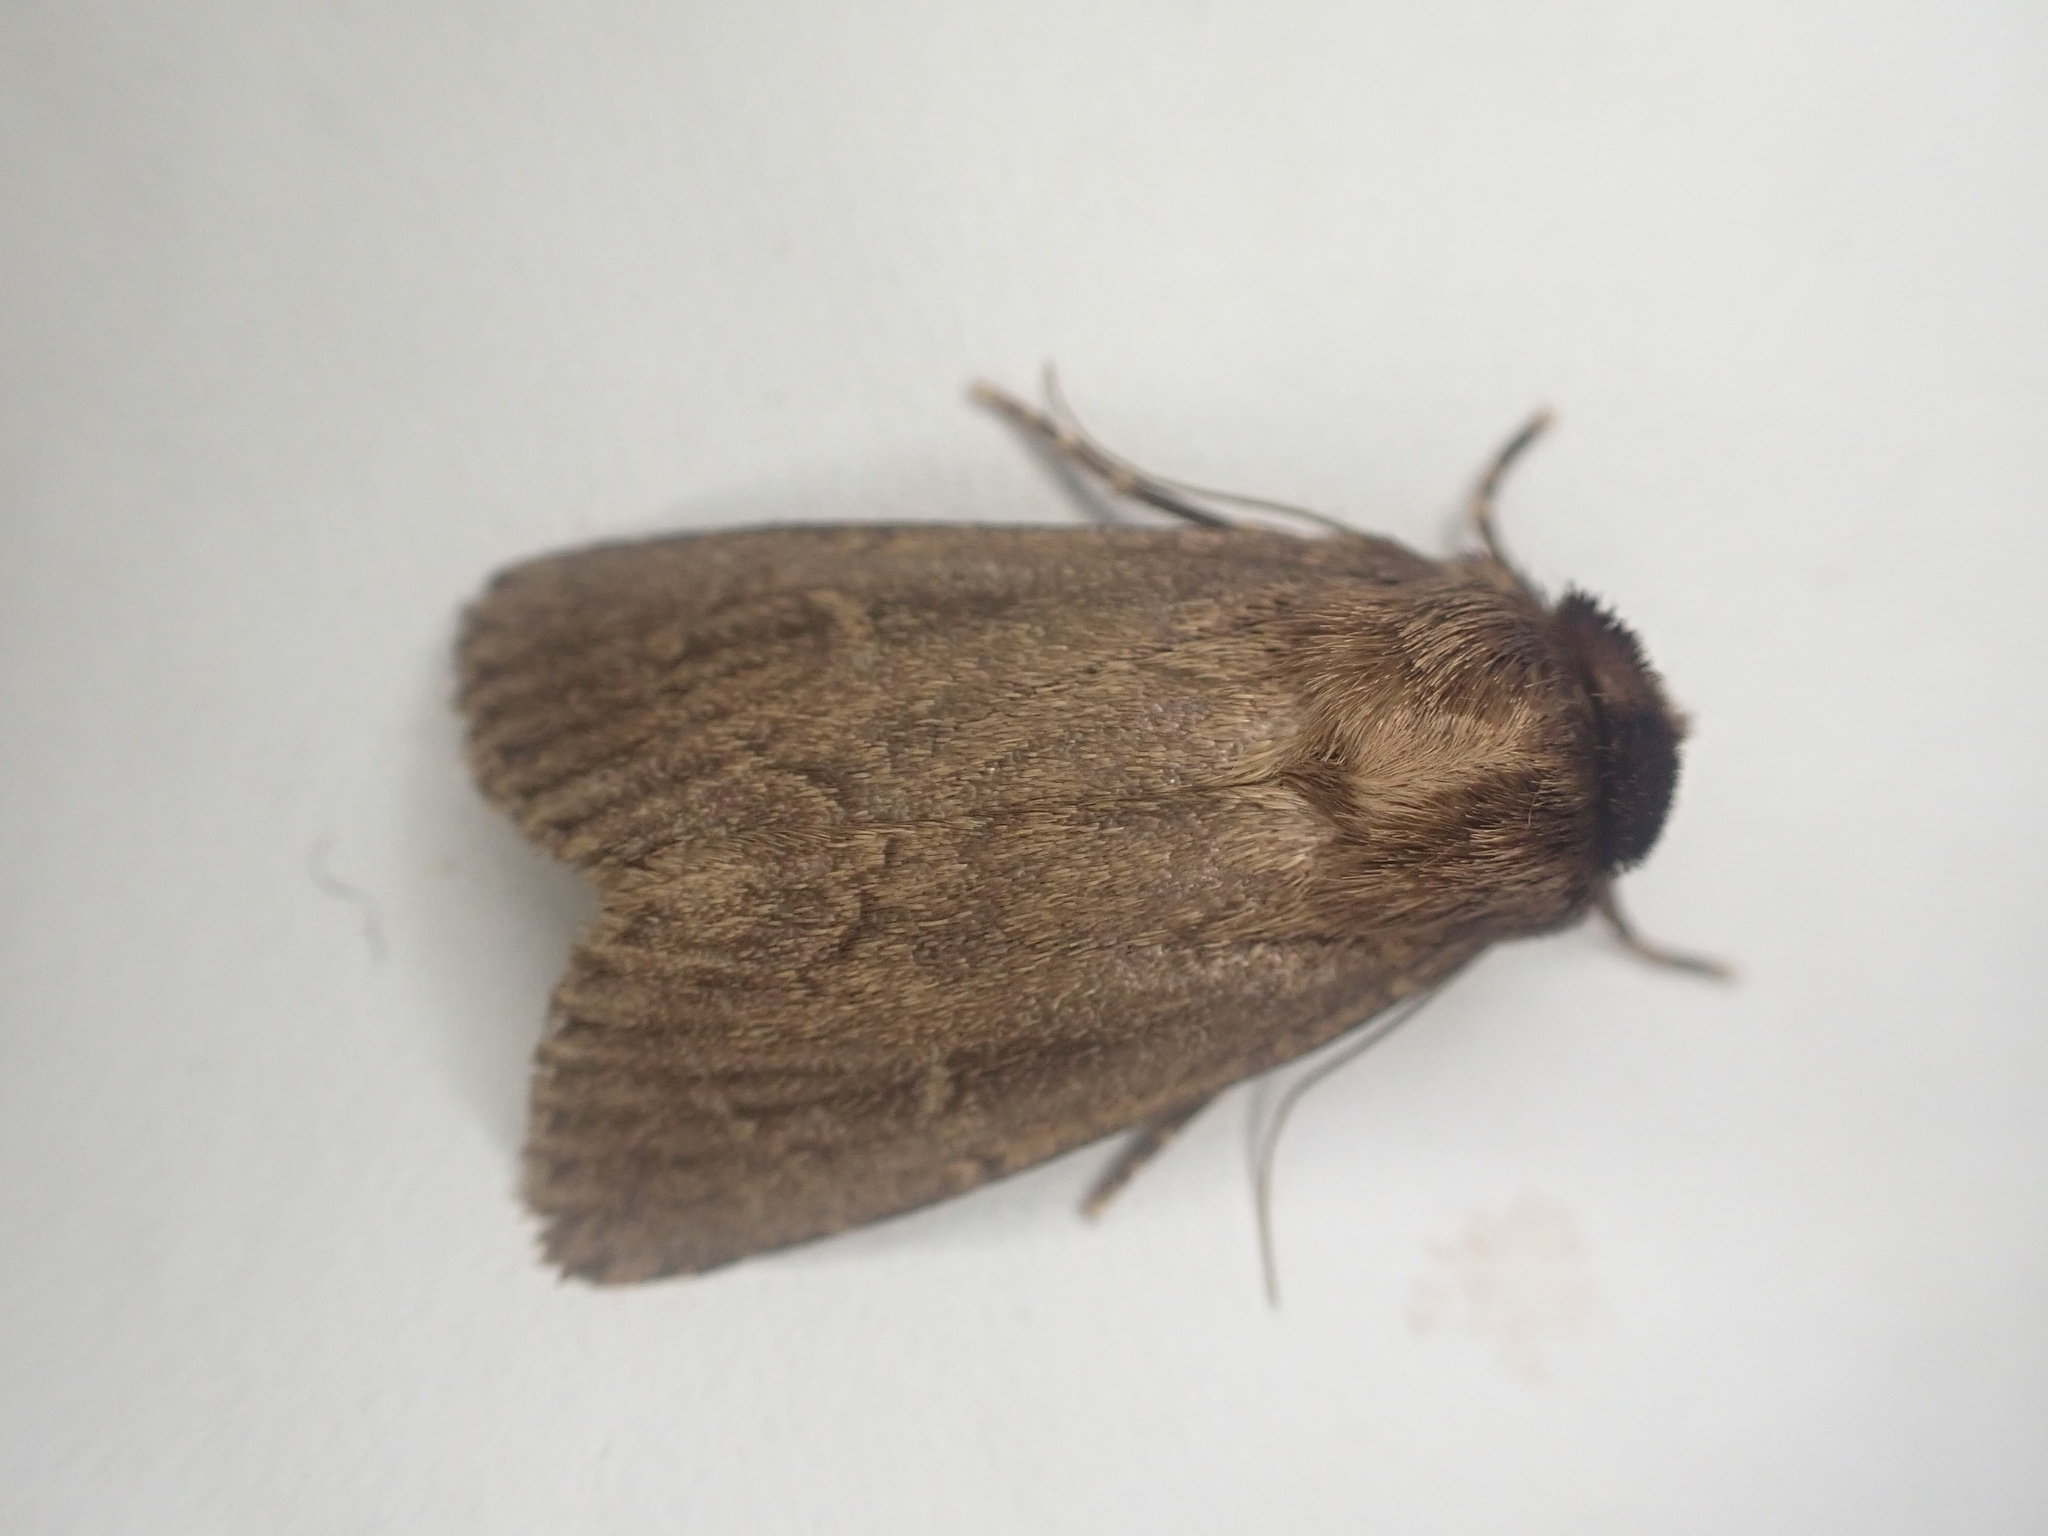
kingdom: Animalia
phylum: Arthropoda
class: Insecta
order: Lepidoptera
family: Noctuidae
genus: Bityla
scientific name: Bityla defigurata
